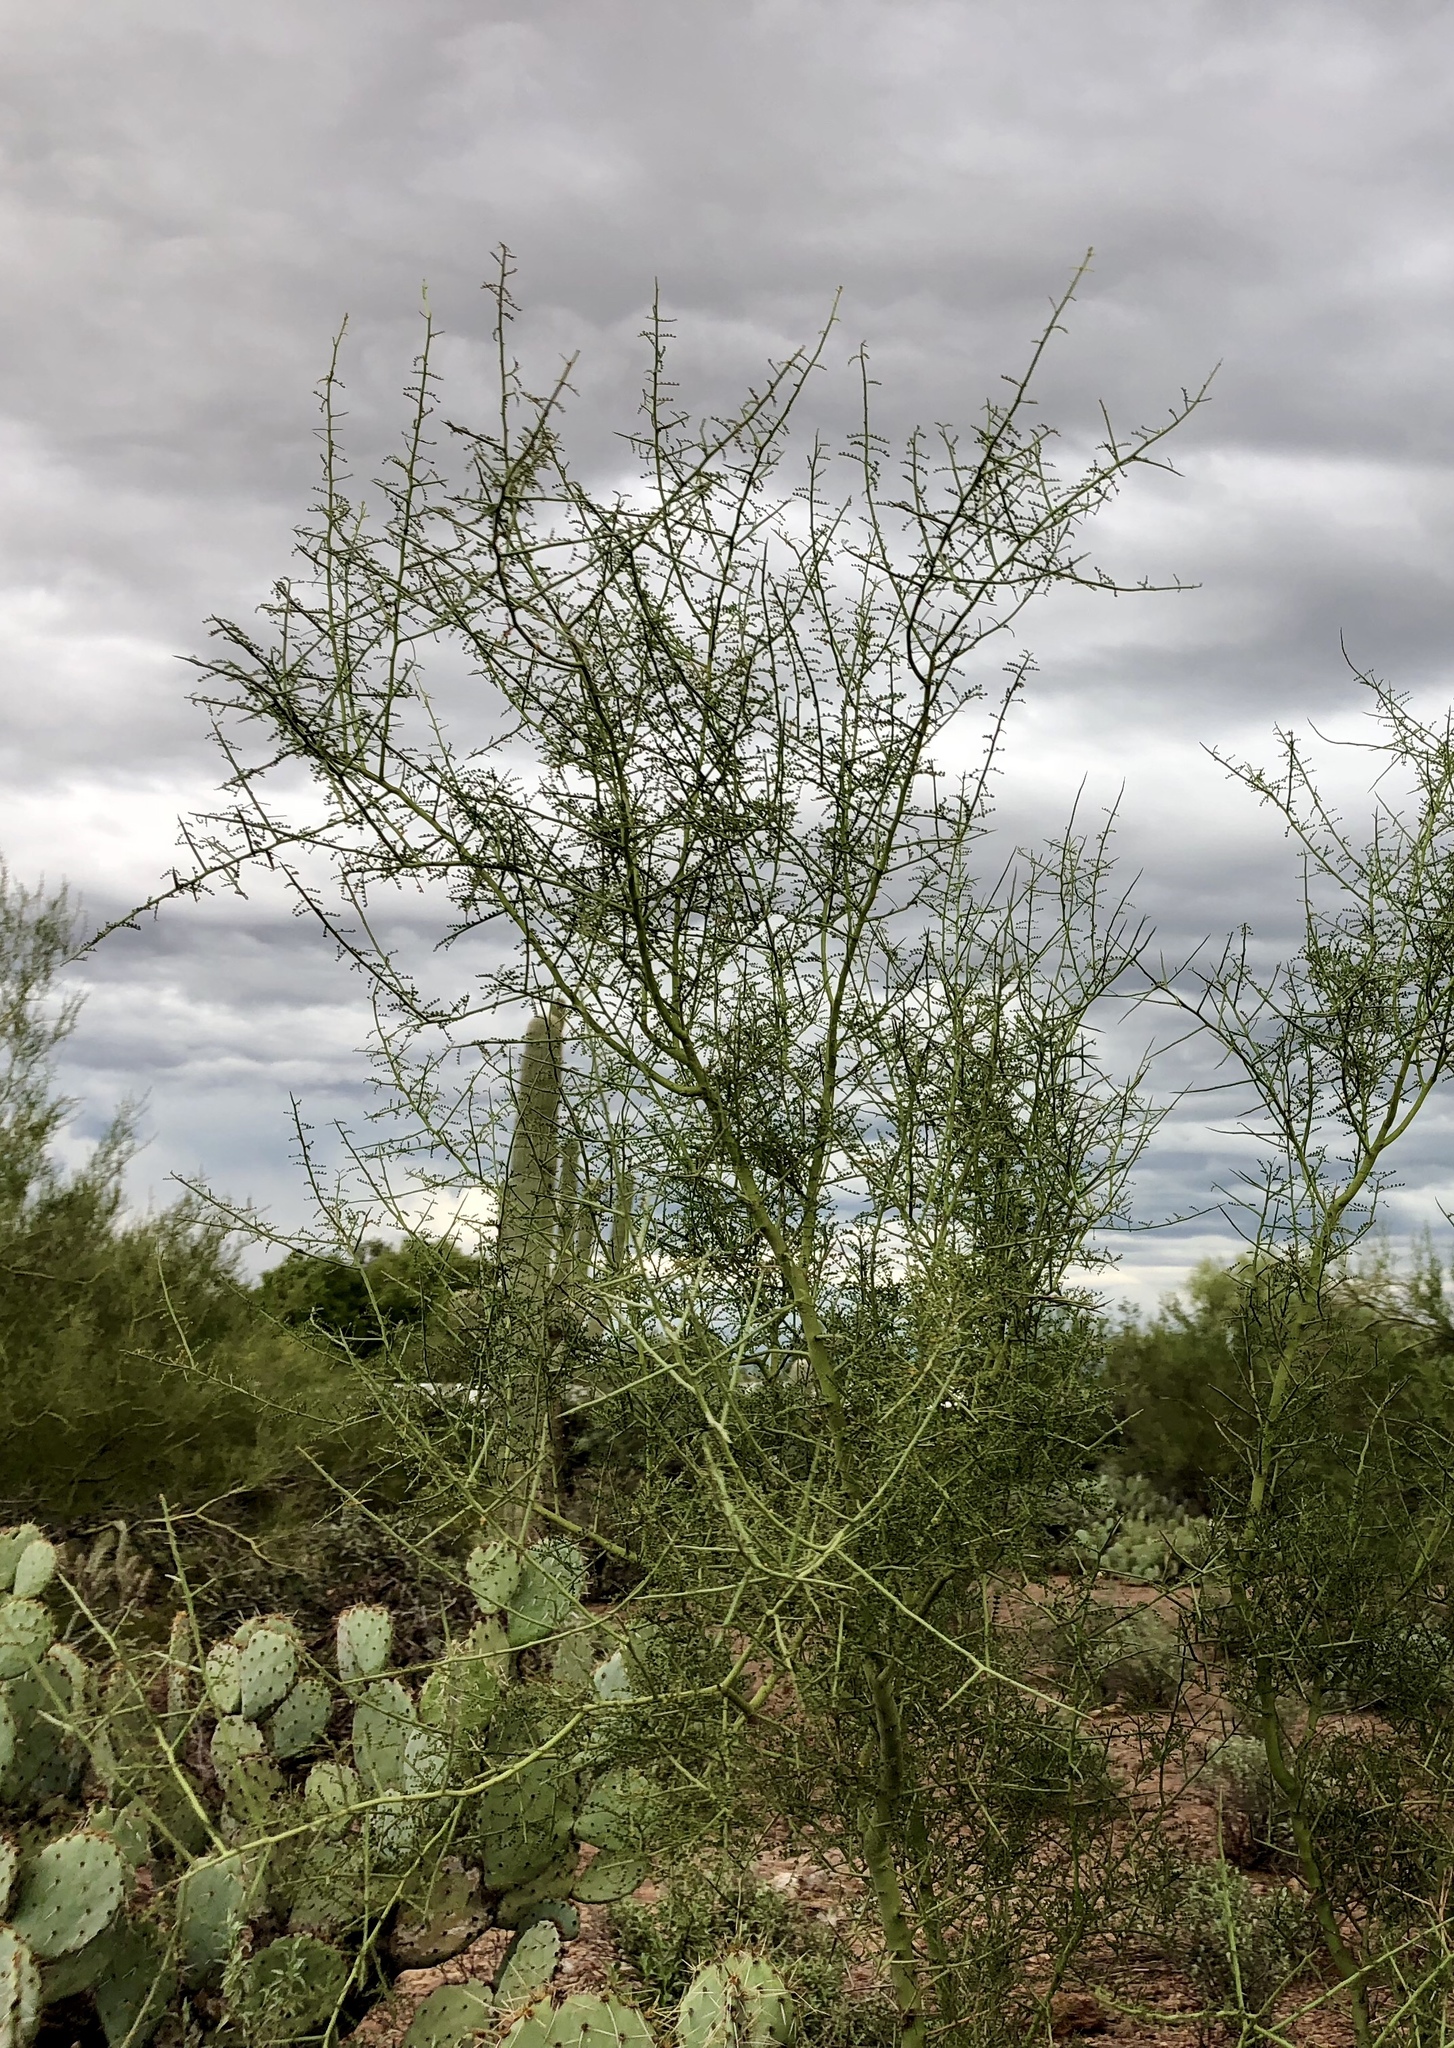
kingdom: Plantae
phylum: Tracheophyta
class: Magnoliopsida
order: Fabales
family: Fabaceae
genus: Parkinsonia
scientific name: Parkinsonia microphylla
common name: Yellow paloverde
